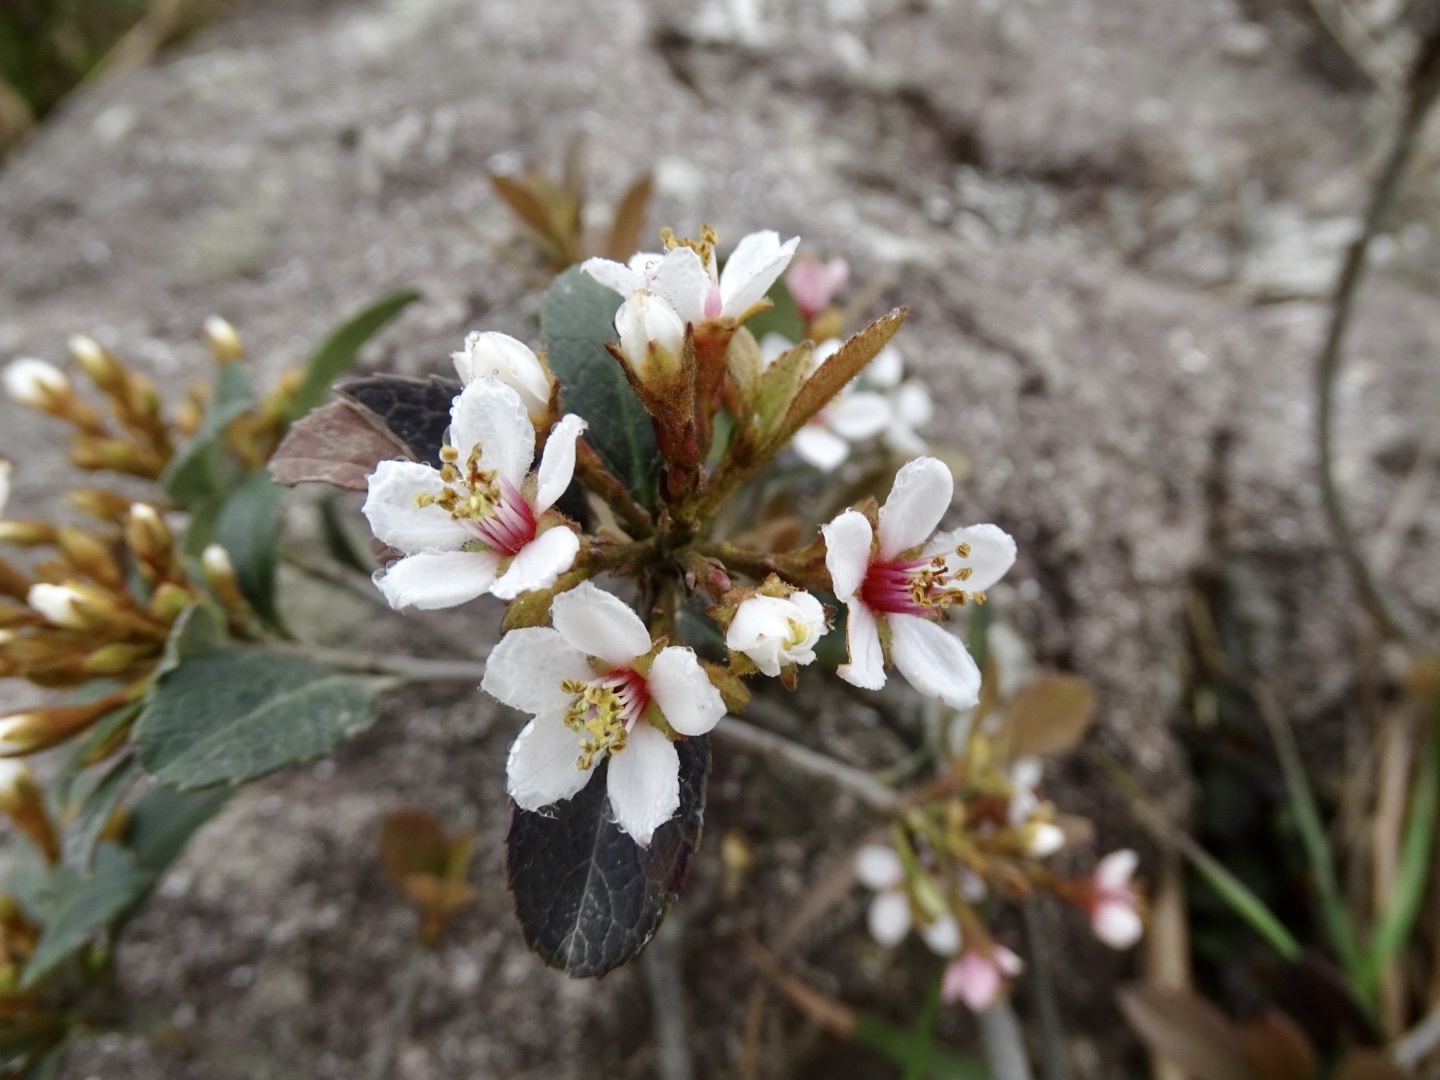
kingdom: Plantae
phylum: Tracheophyta
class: Magnoliopsida
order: Rosales
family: Rosaceae
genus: Rhaphiolepis
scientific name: Rhaphiolepis indica
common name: India-hawthorn
